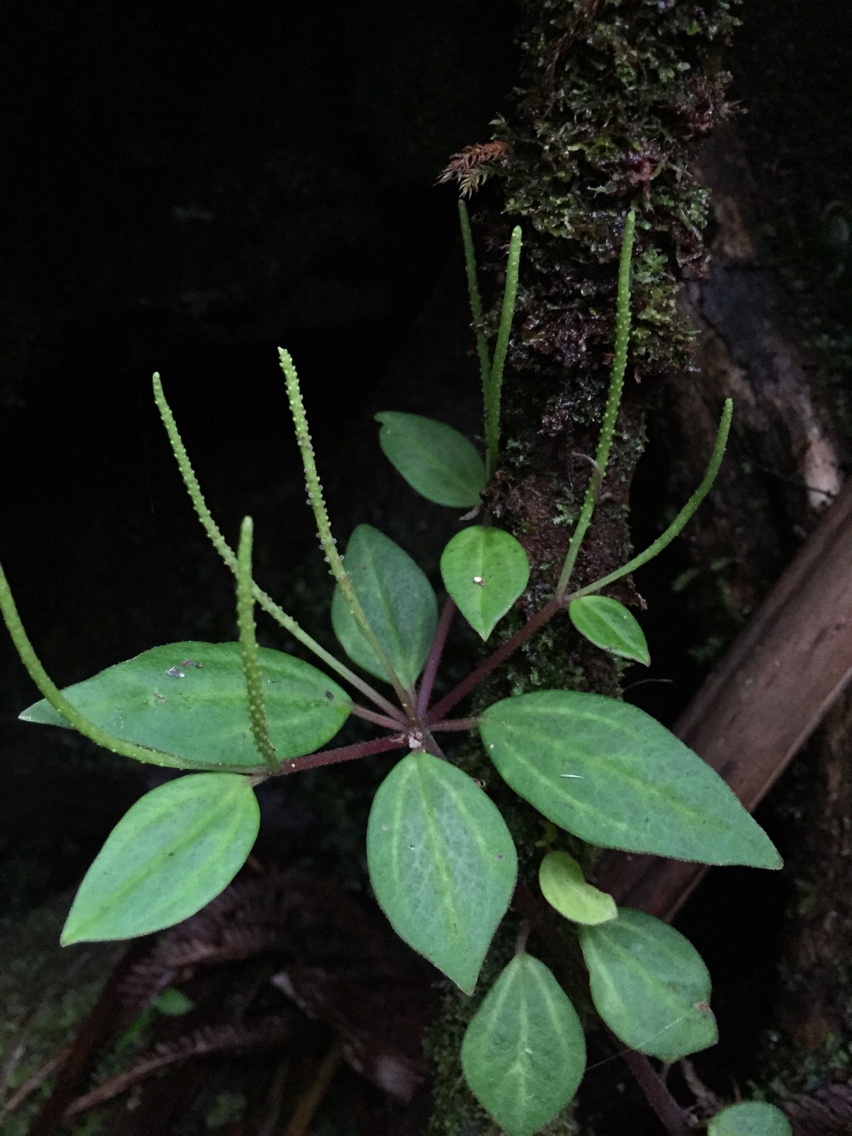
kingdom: Plantae
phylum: Tracheophyta
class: Magnoliopsida
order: Piperales
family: Piperaceae
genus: Peperomia
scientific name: Peperomia leptostachya
